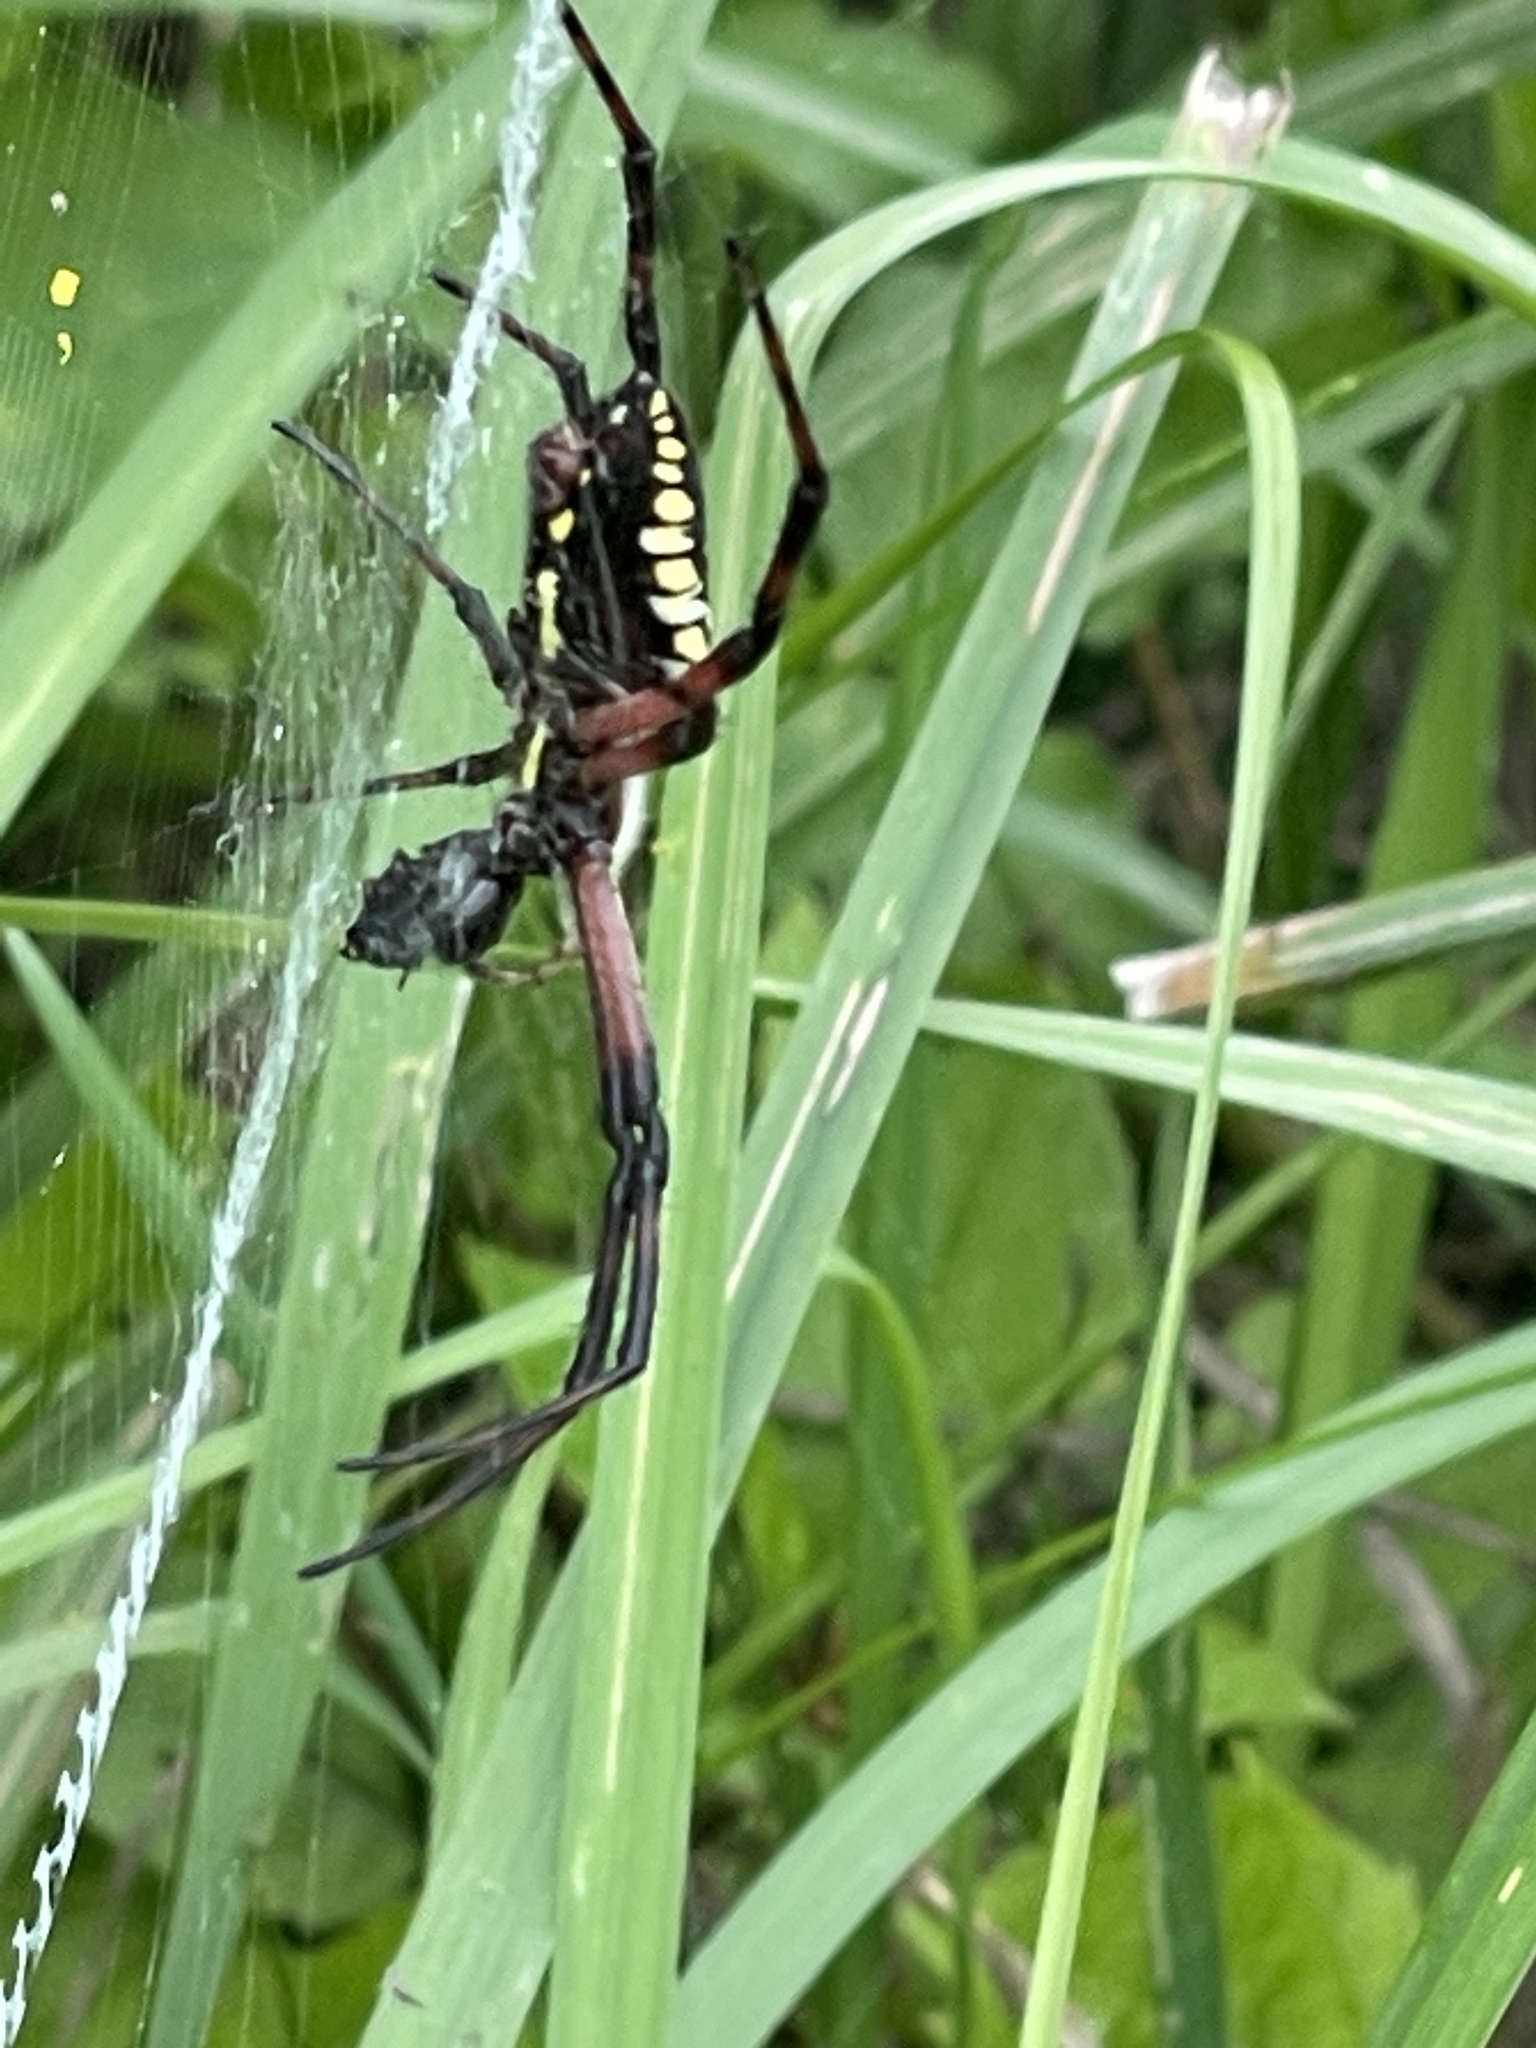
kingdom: Animalia
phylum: Arthropoda
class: Arachnida
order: Araneae
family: Araneidae
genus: Argiope
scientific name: Argiope aurantia
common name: Orb weavers
